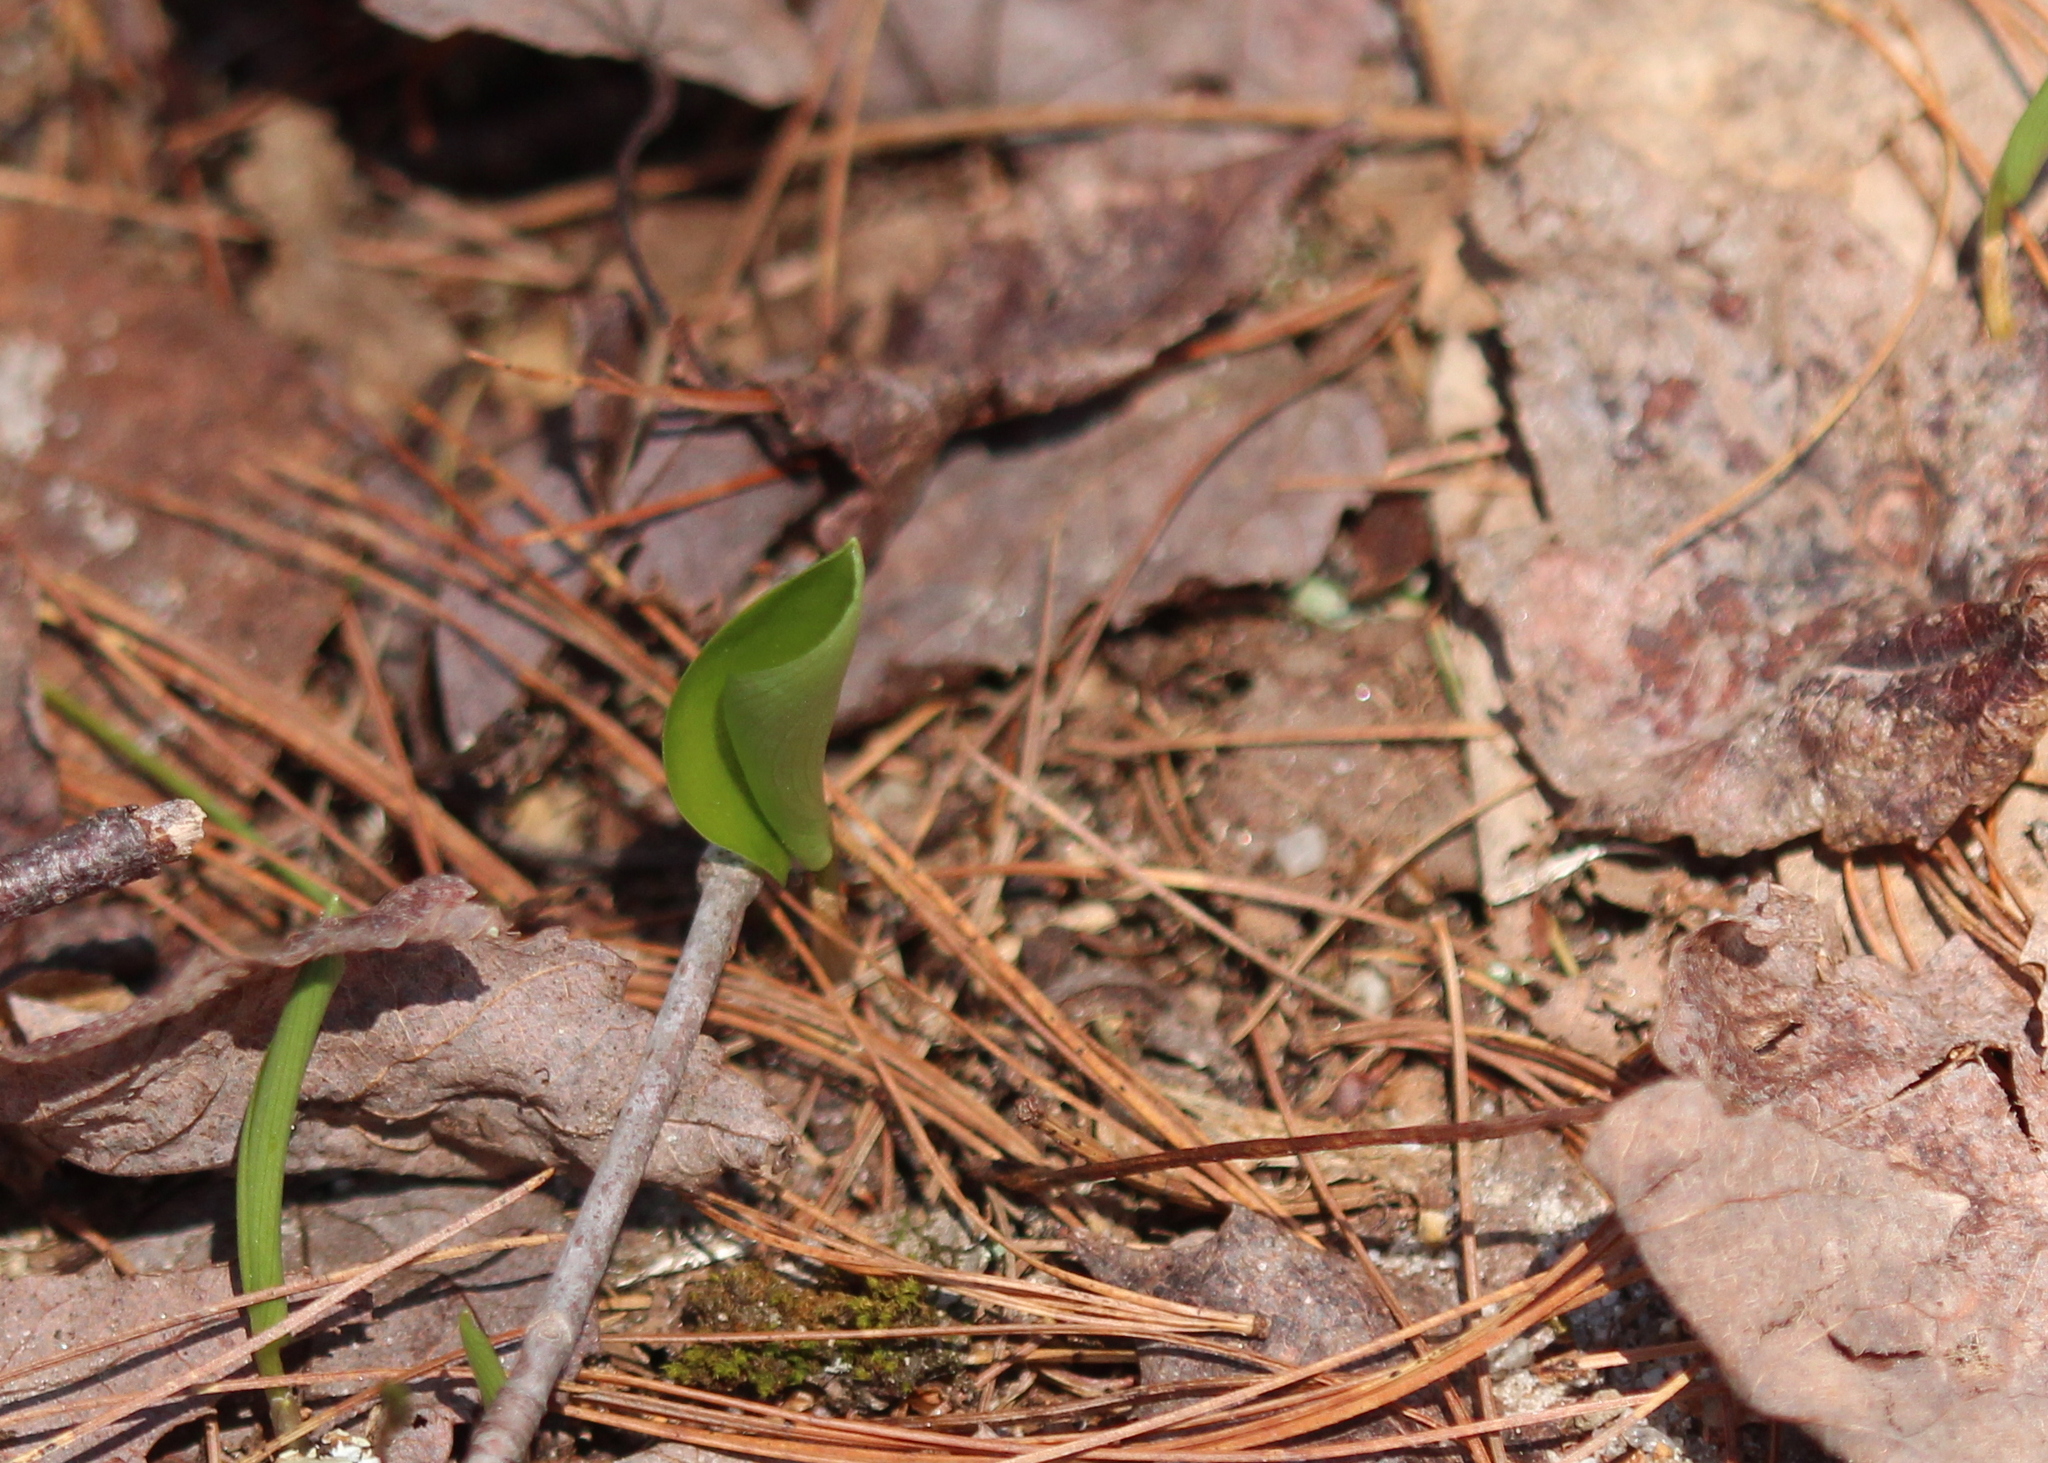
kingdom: Plantae
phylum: Tracheophyta
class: Liliopsida
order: Asparagales
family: Asparagaceae
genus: Maianthemum
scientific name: Maianthemum canadense
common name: False lily-of-the-valley
